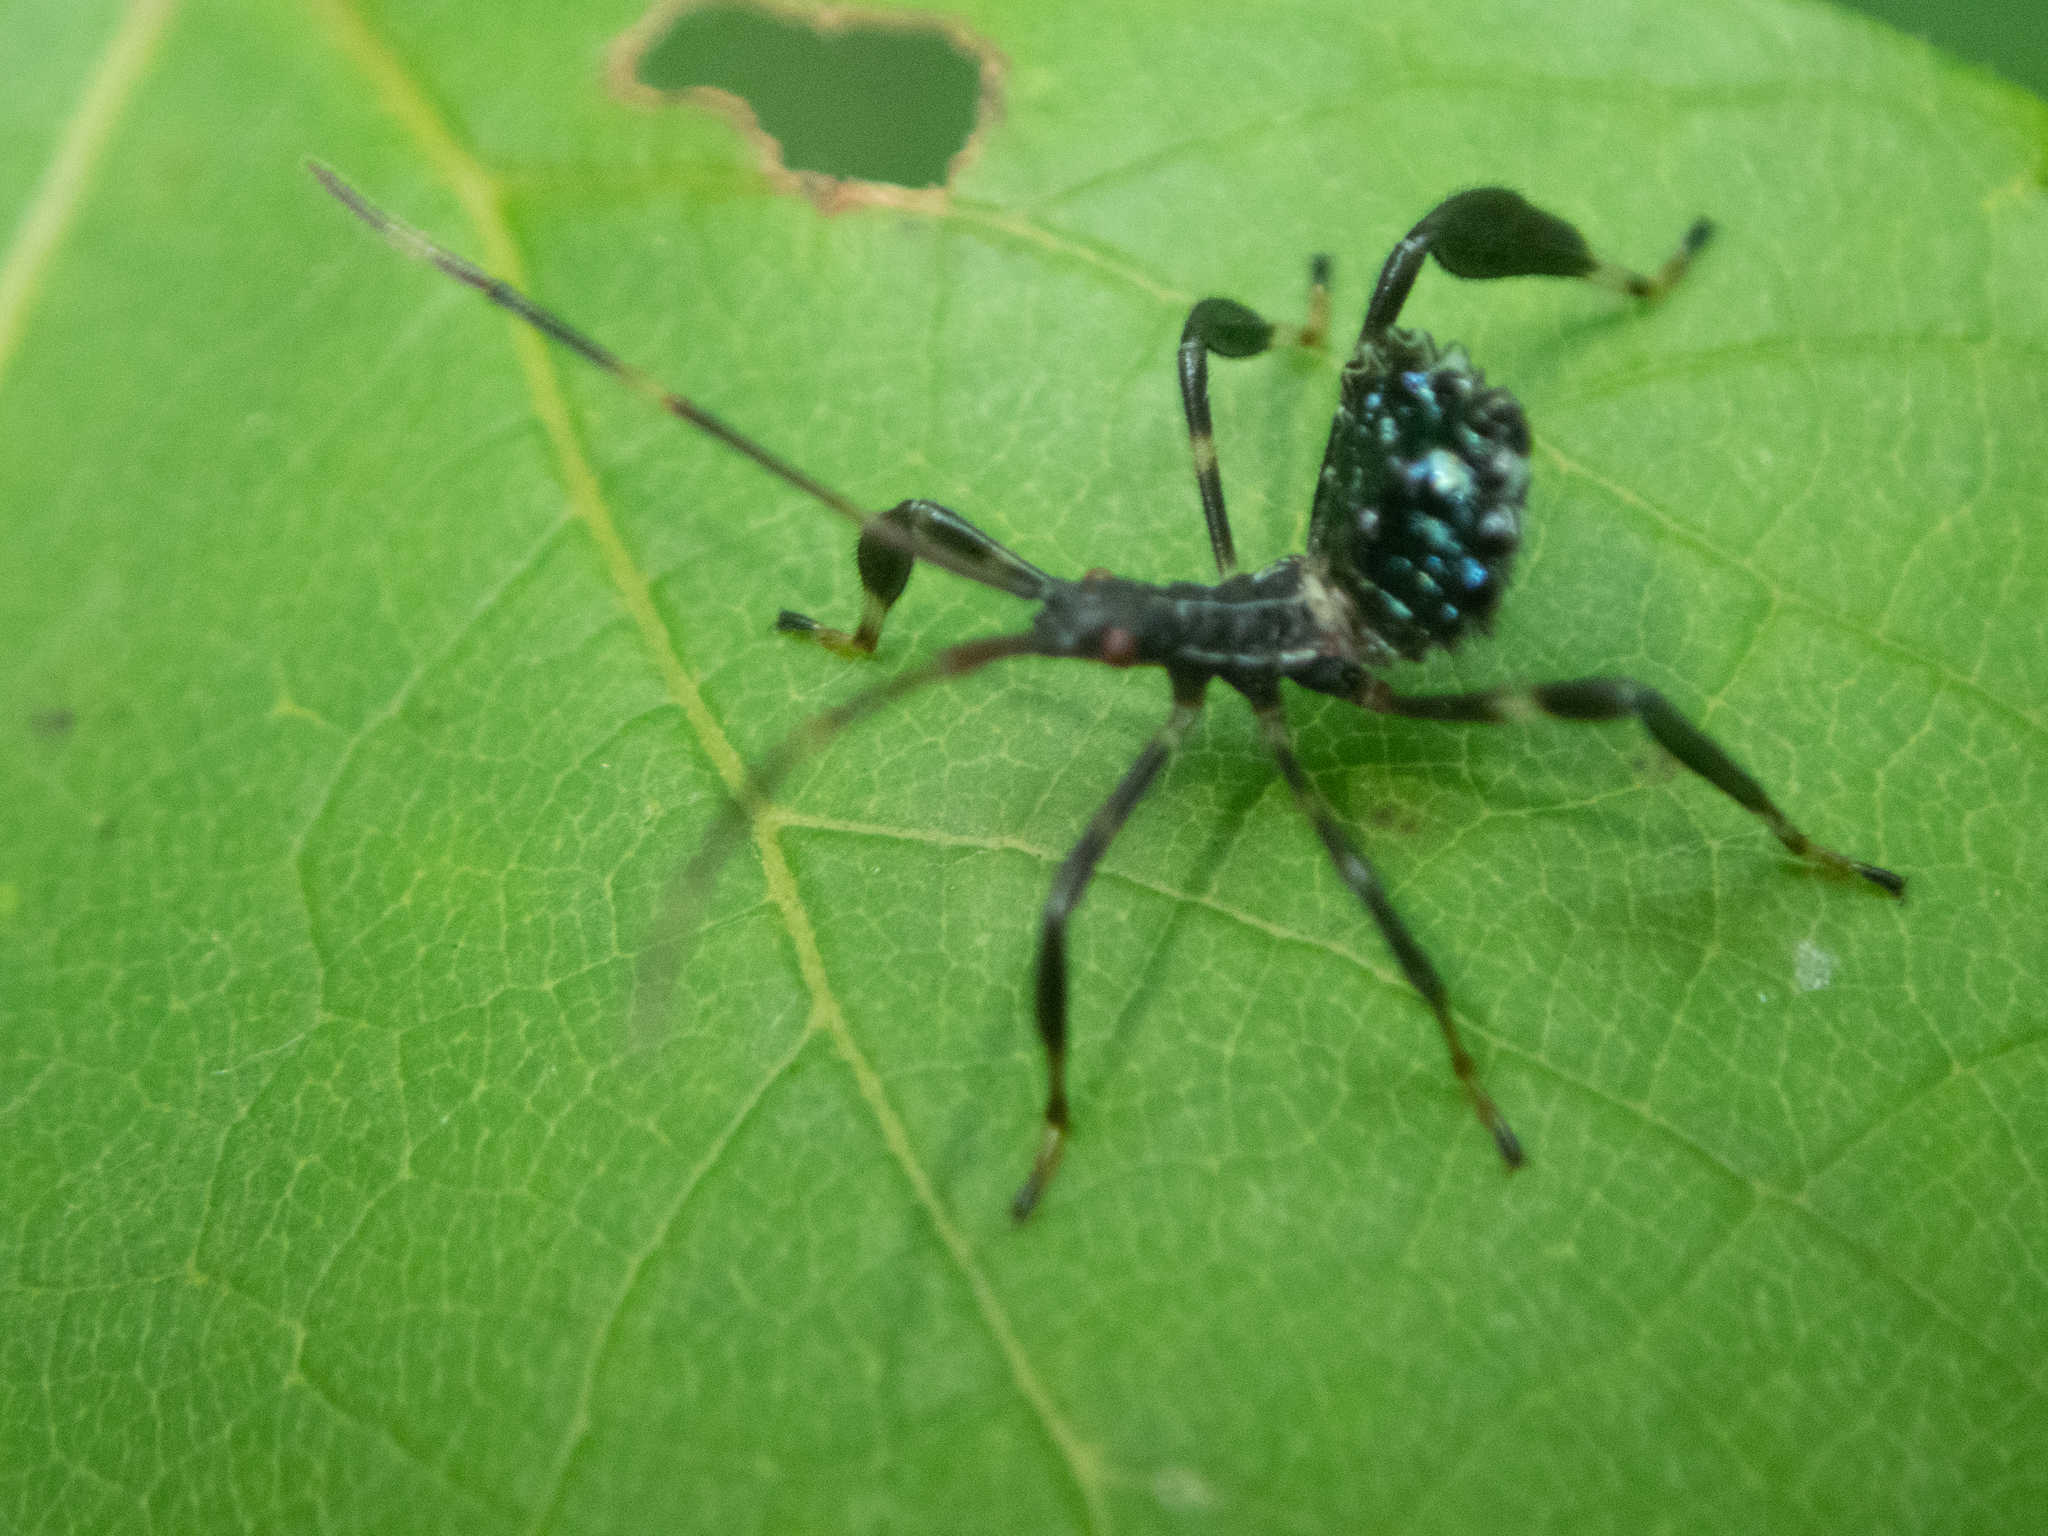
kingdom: Animalia
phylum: Arthropoda
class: Insecta
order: Hemiptera
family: Coreidae
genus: Acanthocephala
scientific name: Acanthocephala terminalis
